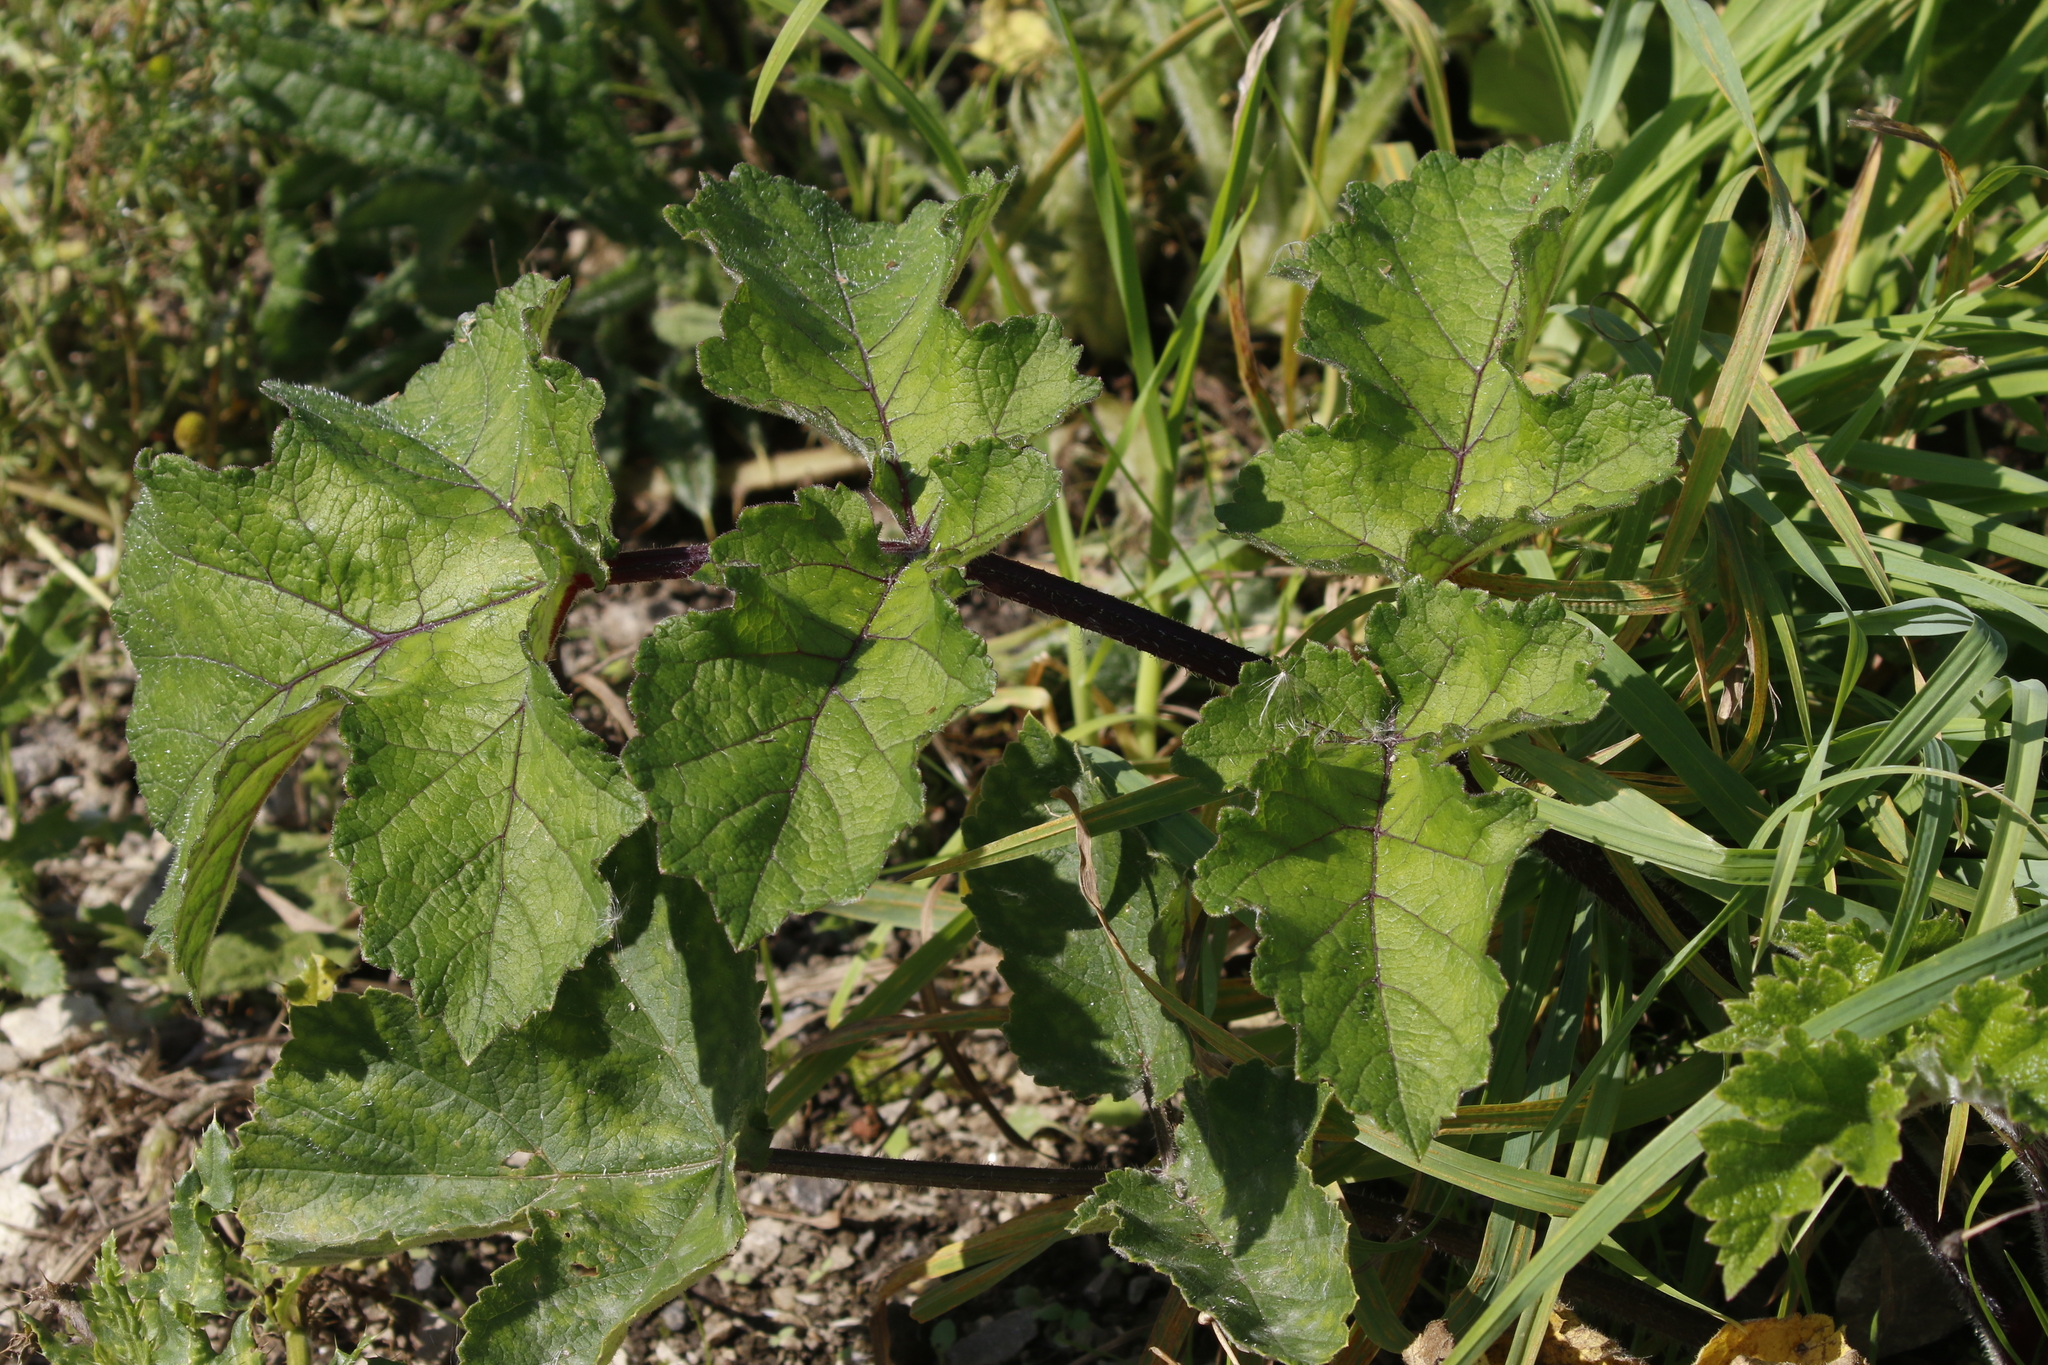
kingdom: Plantae
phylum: Tracheophyta
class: Magnoliopsida
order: Apiales
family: Apiaceae
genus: Heracleum
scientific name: Heracleum sphondylium
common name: Hogweed
